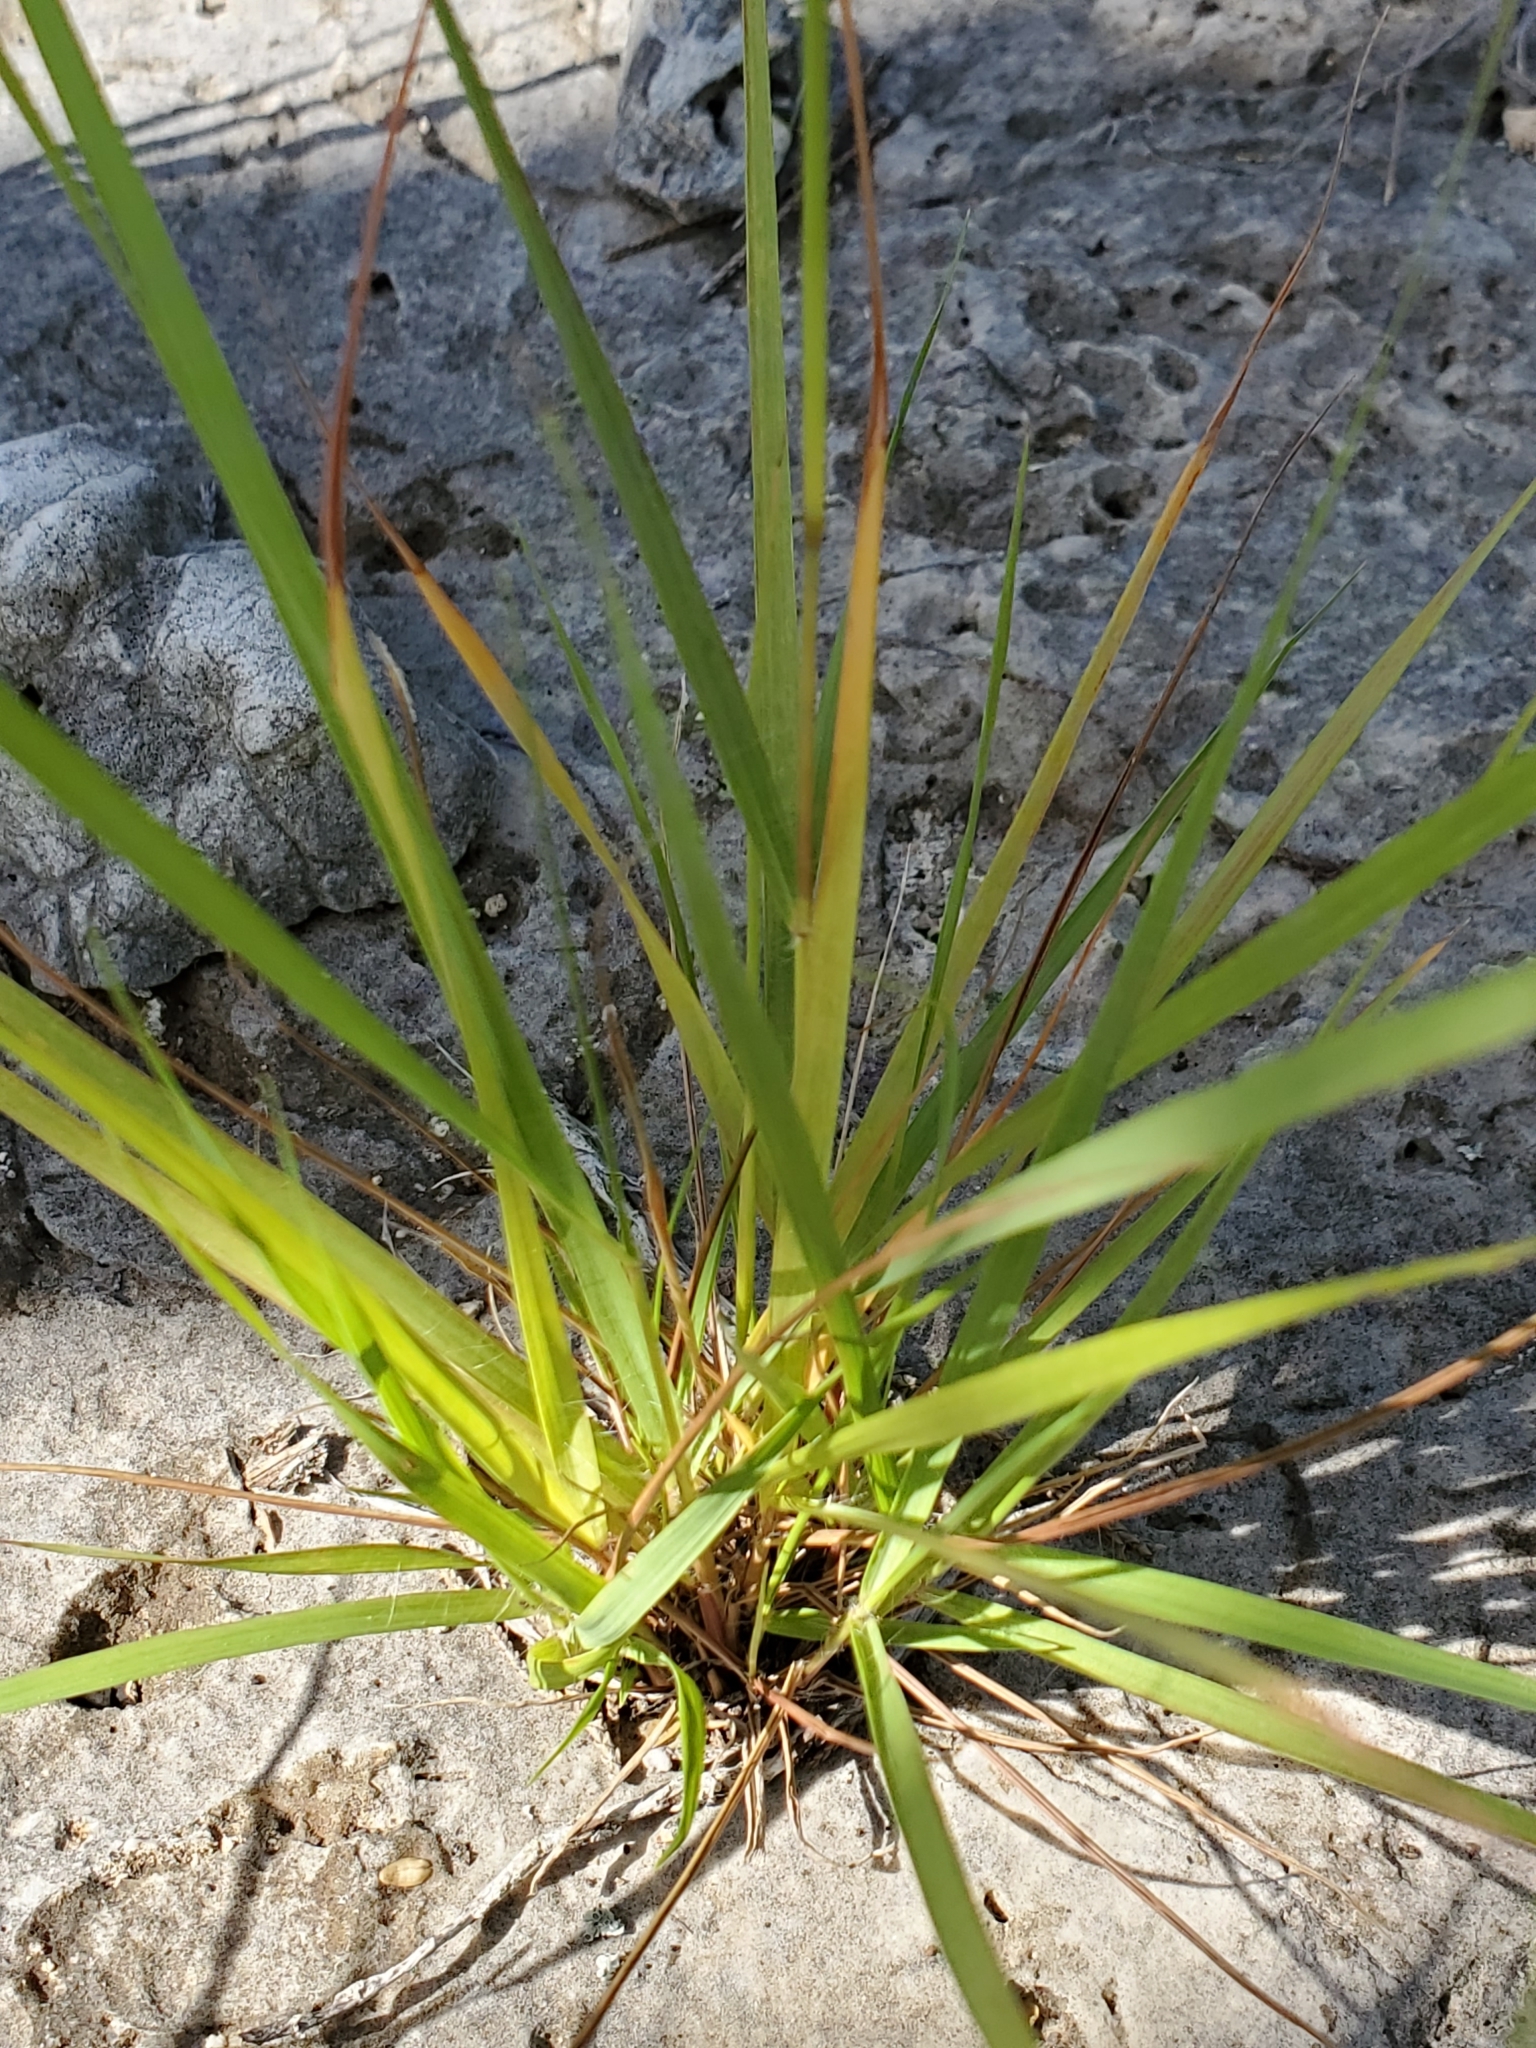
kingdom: Plantae
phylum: Tracheophyta
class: Liliopsida
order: Poales
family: Poaceae
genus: Eragrostis
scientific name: Eragrostis intermedia
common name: Plains love grass
